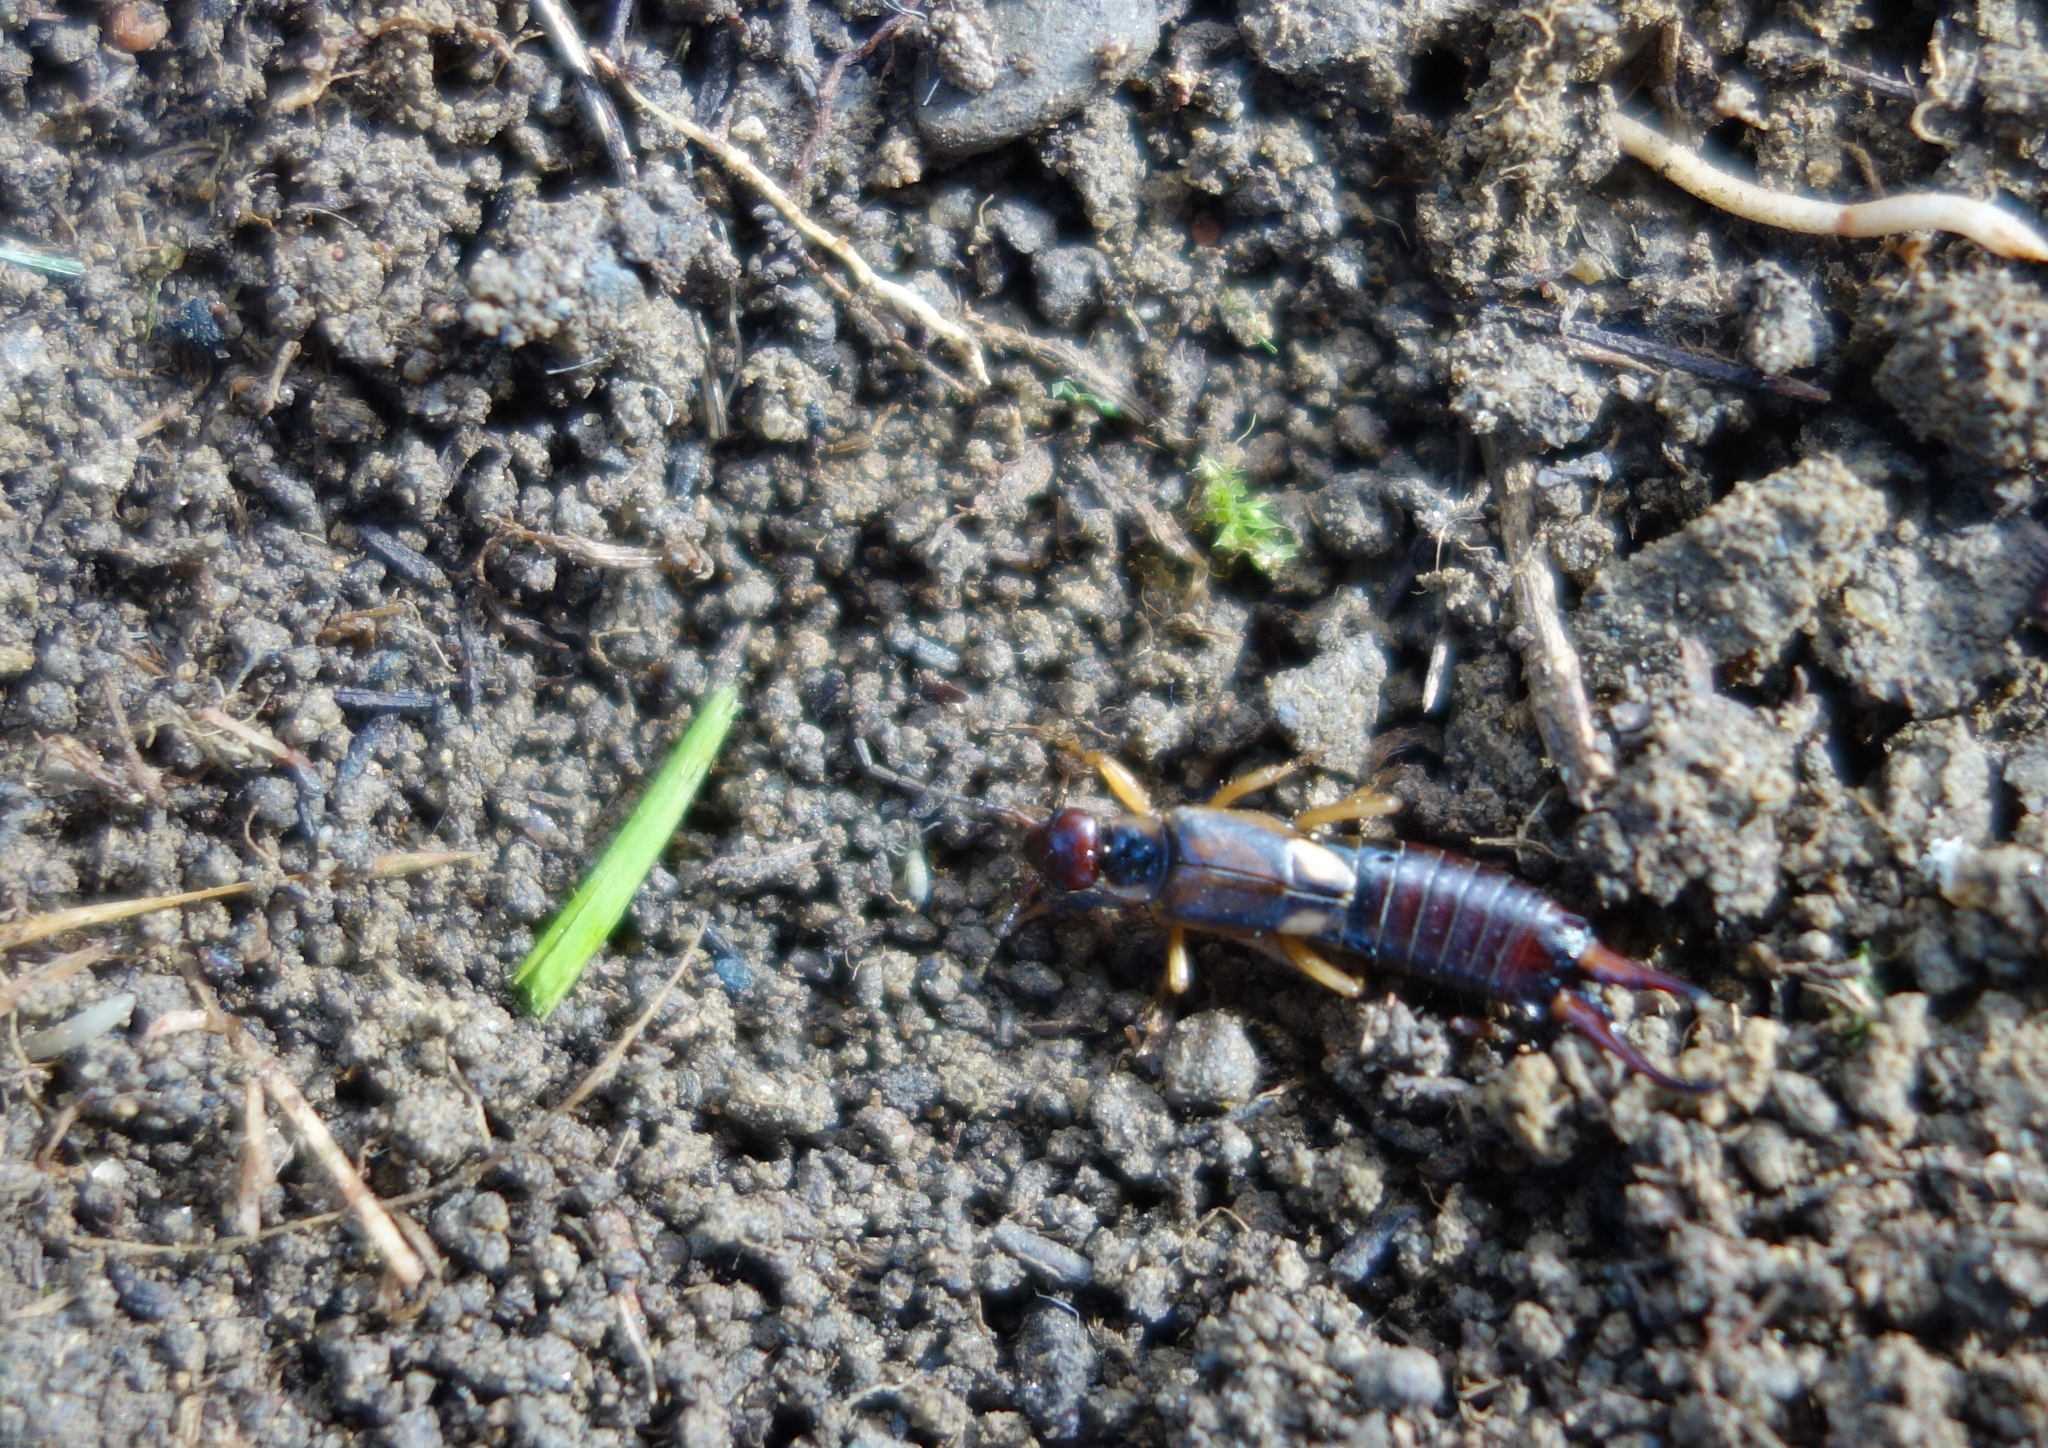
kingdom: Animalia
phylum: Arthropoda
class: Insecta
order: Dermaptera
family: Forficulidae
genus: Forficula
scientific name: Forficula
